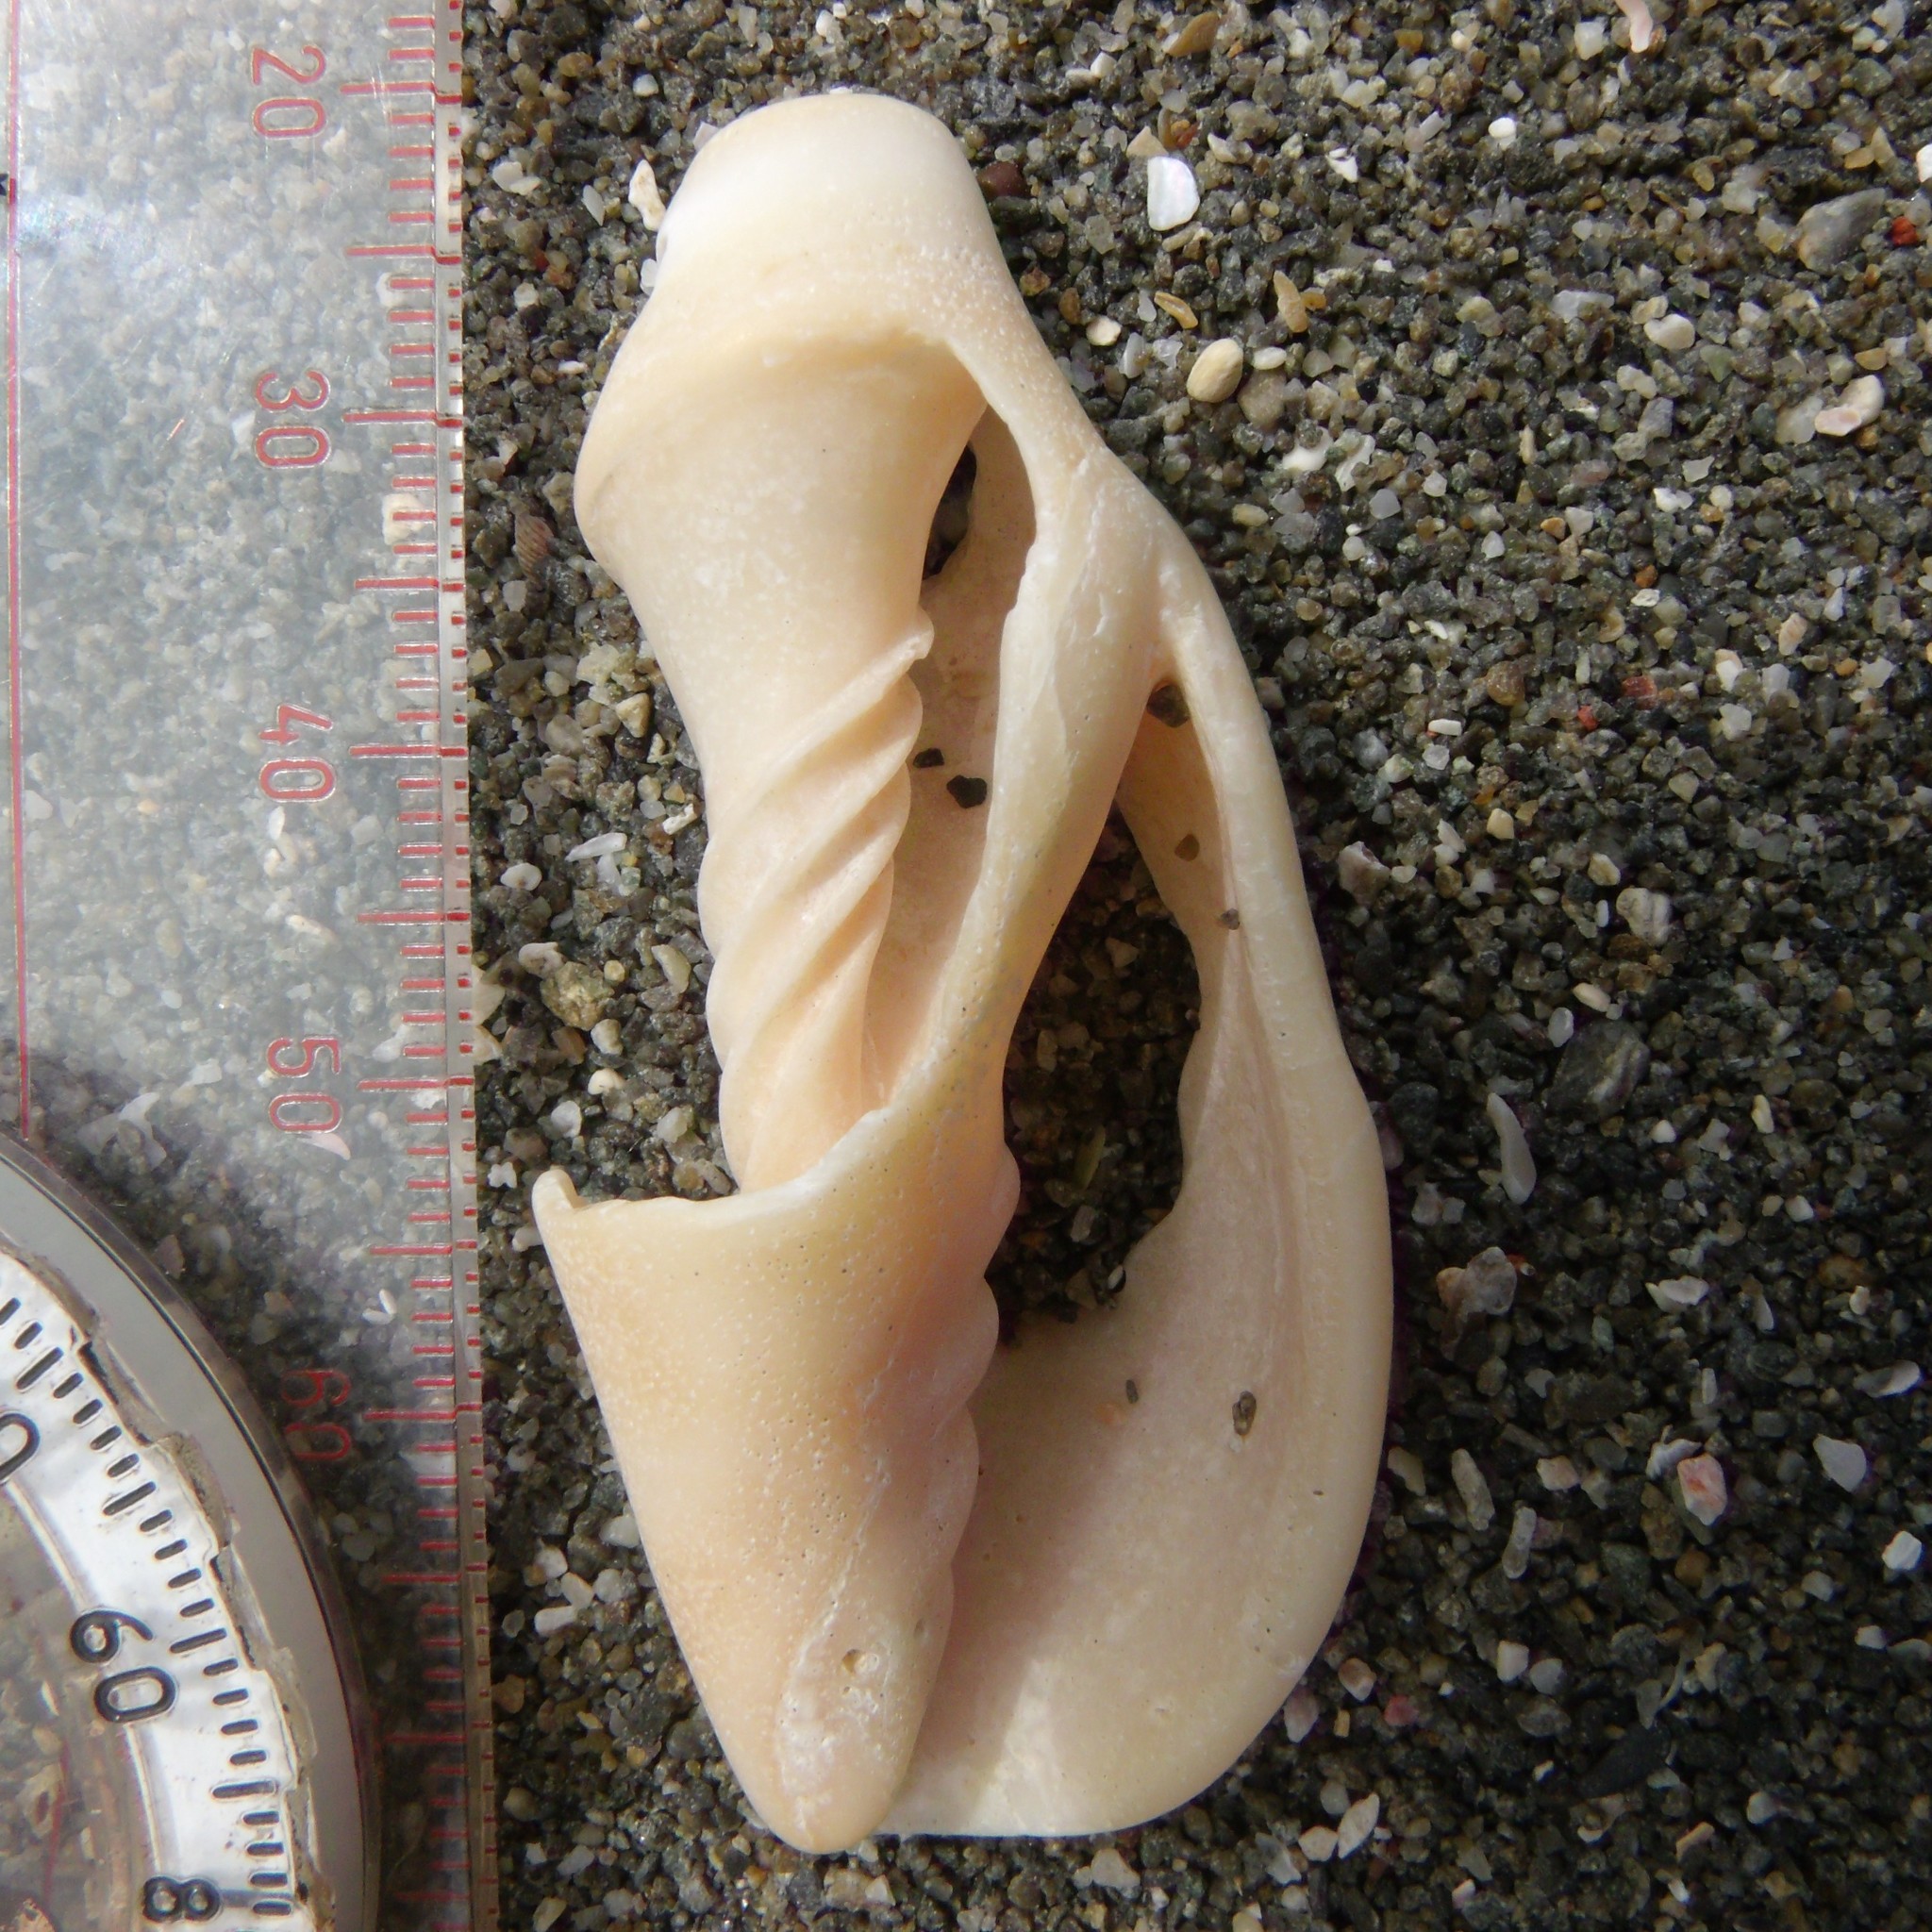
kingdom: Animalia
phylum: Mollusca
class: Gastropoda
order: Neogastropoda
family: Volutidae
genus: Alcithoe
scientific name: Alcithoe fusus
